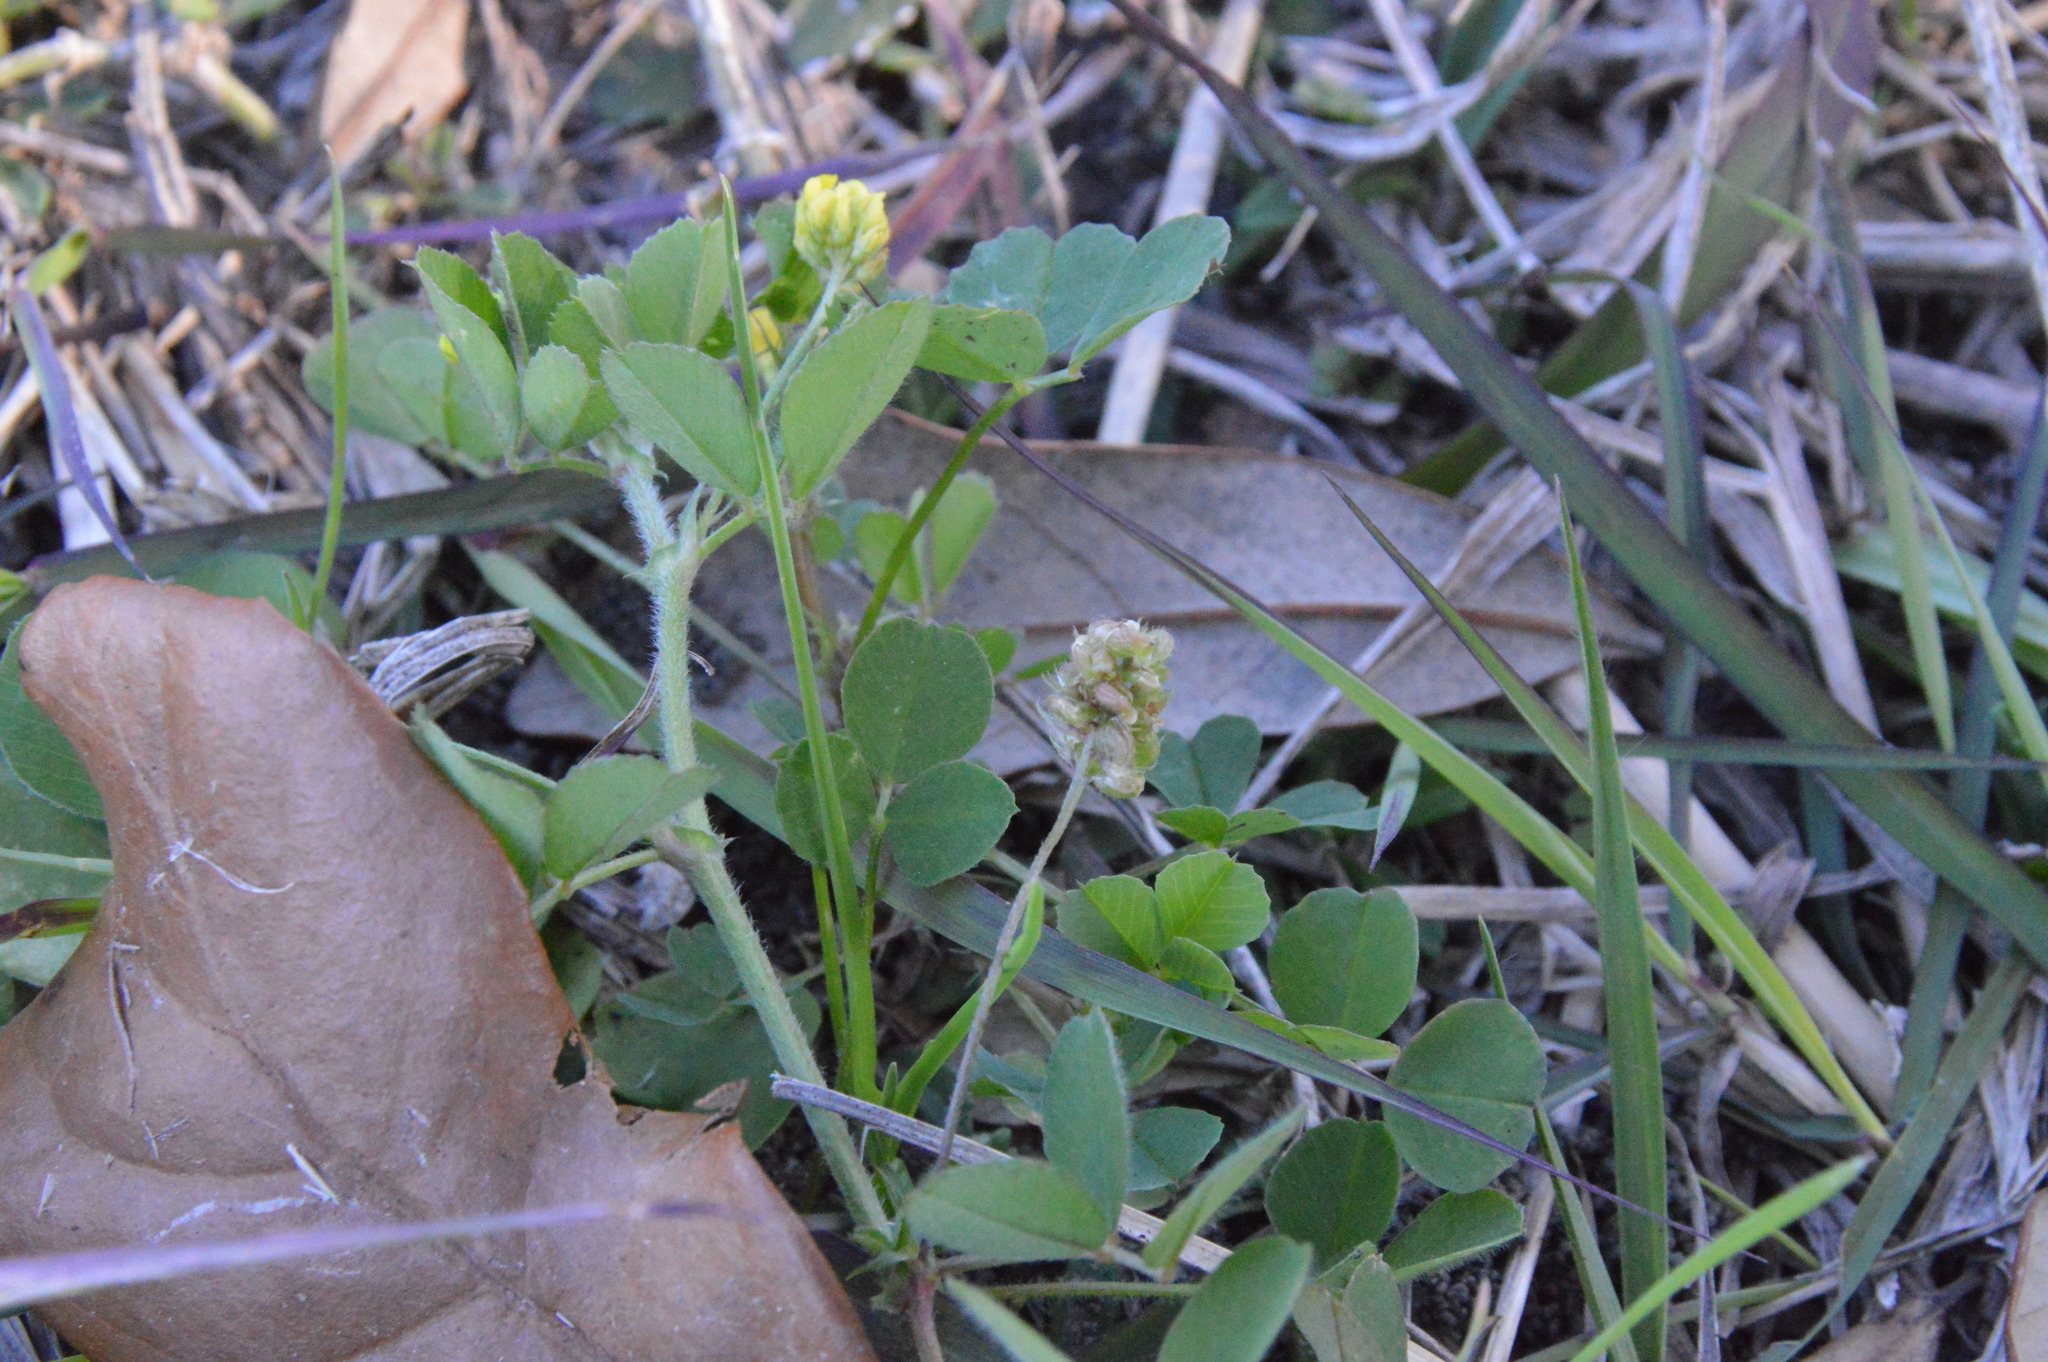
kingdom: Plantae
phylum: Tracheophyta
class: Magnoliopsida
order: Fabales
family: Fabaceae
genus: Medicago
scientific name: Medicago lupulina
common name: Black medick
